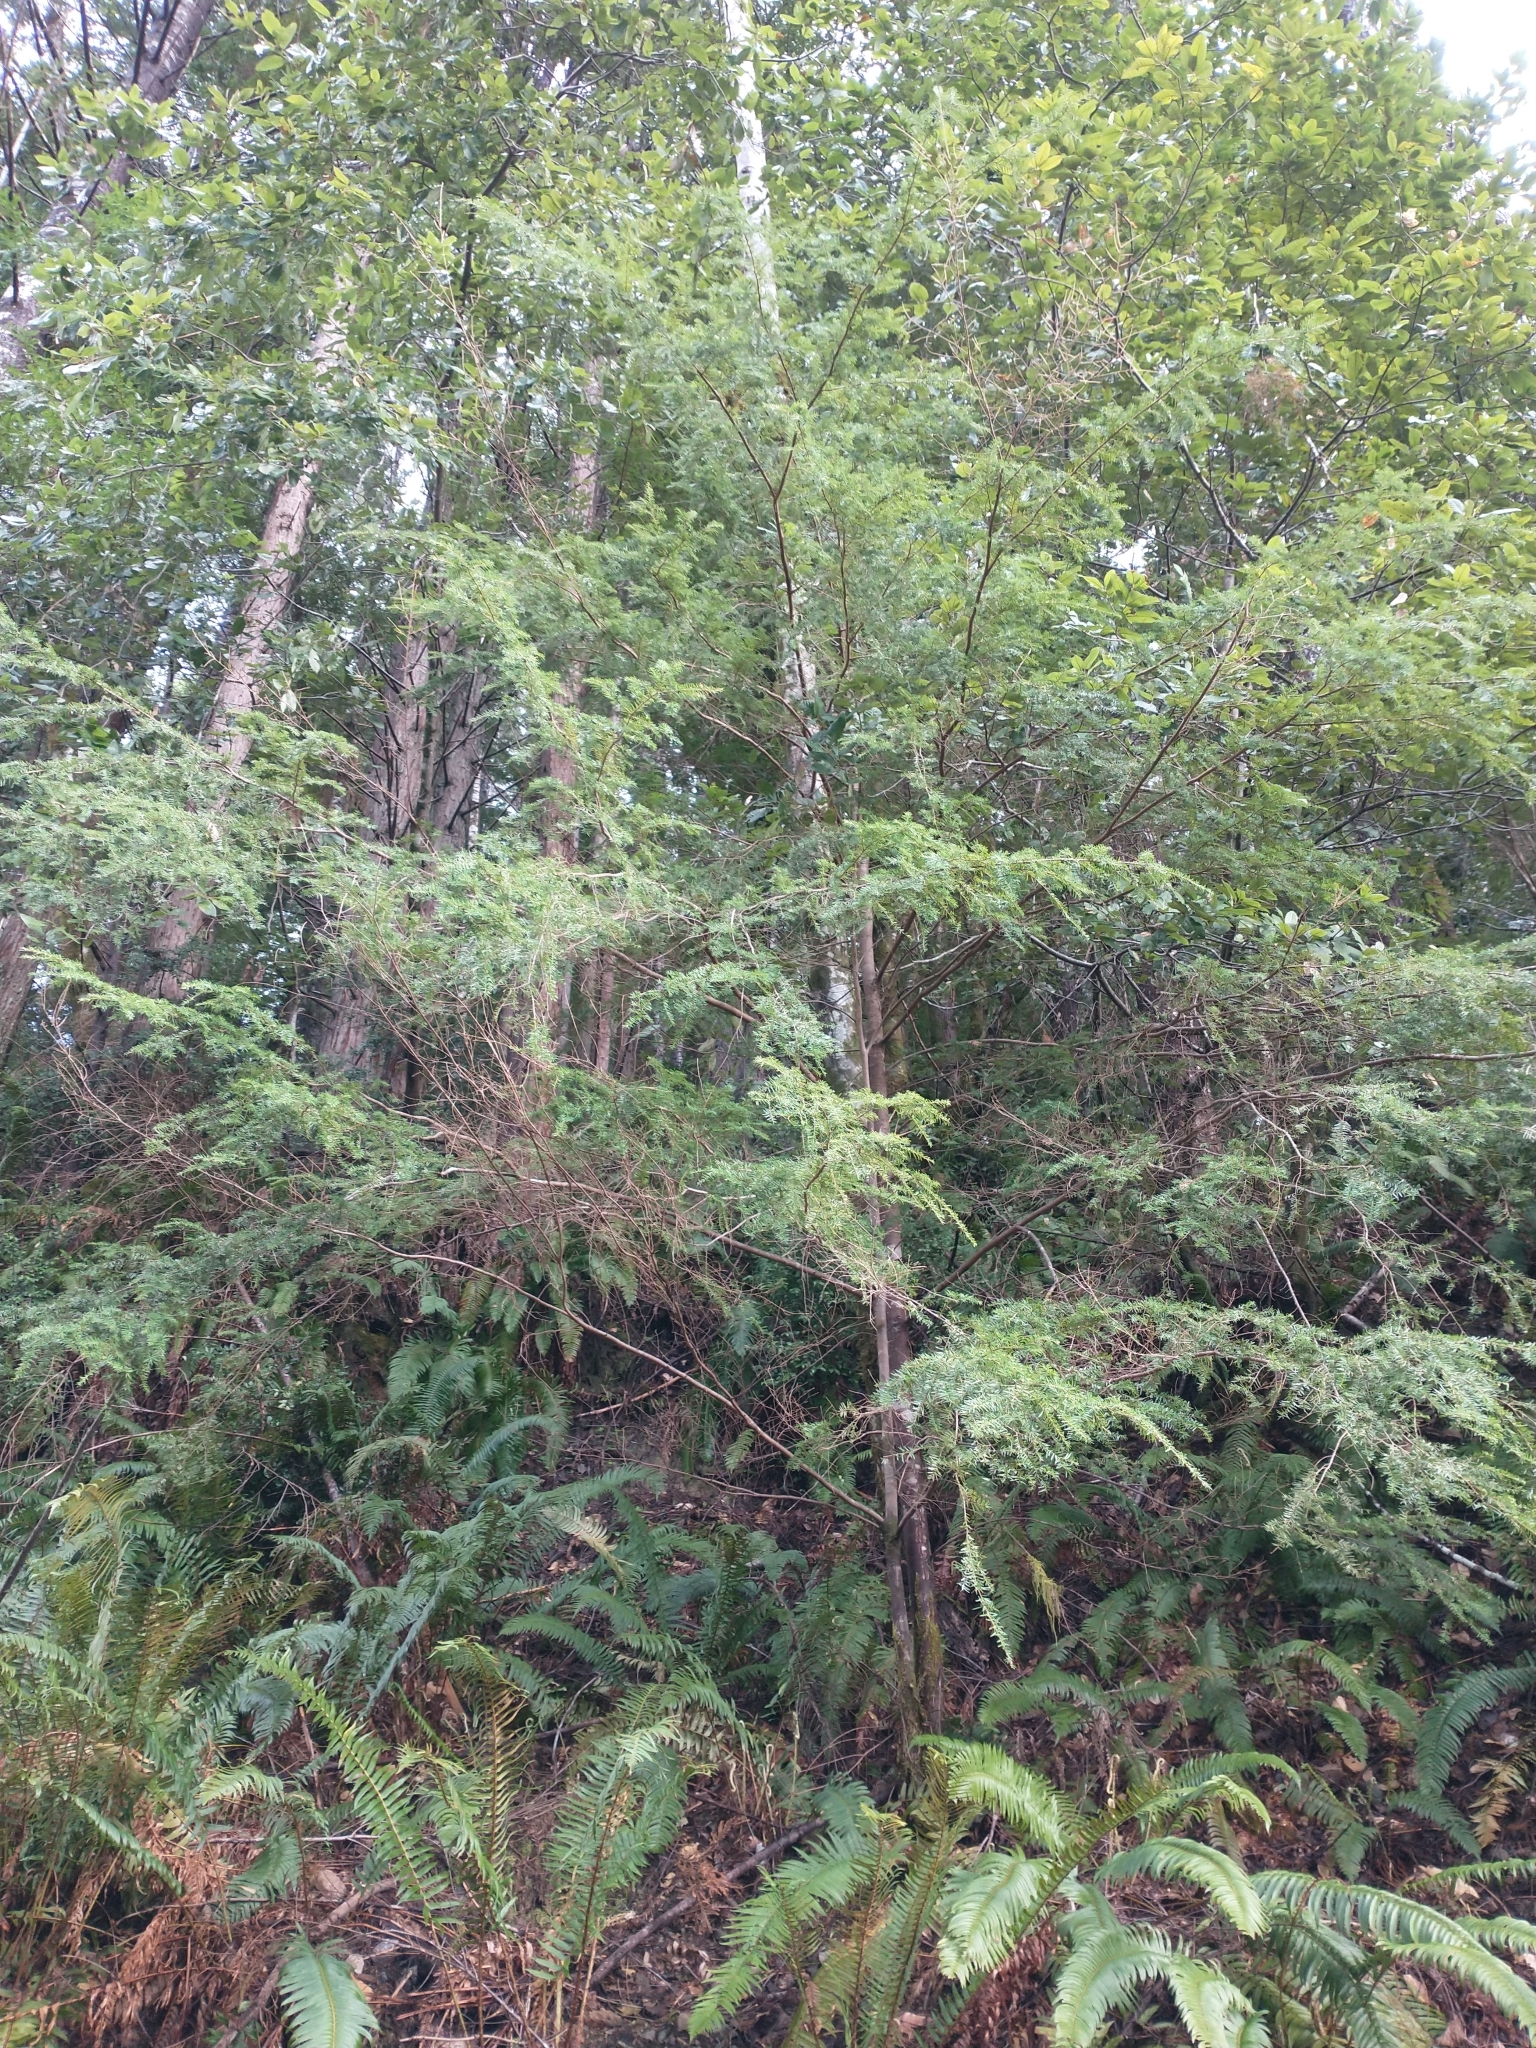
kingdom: Plantae
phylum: Tracheophyta
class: Pinopsida
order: Pinales
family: Pinaceae
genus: Tsuga
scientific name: Tsuga heterophylla
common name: Western hemlock
